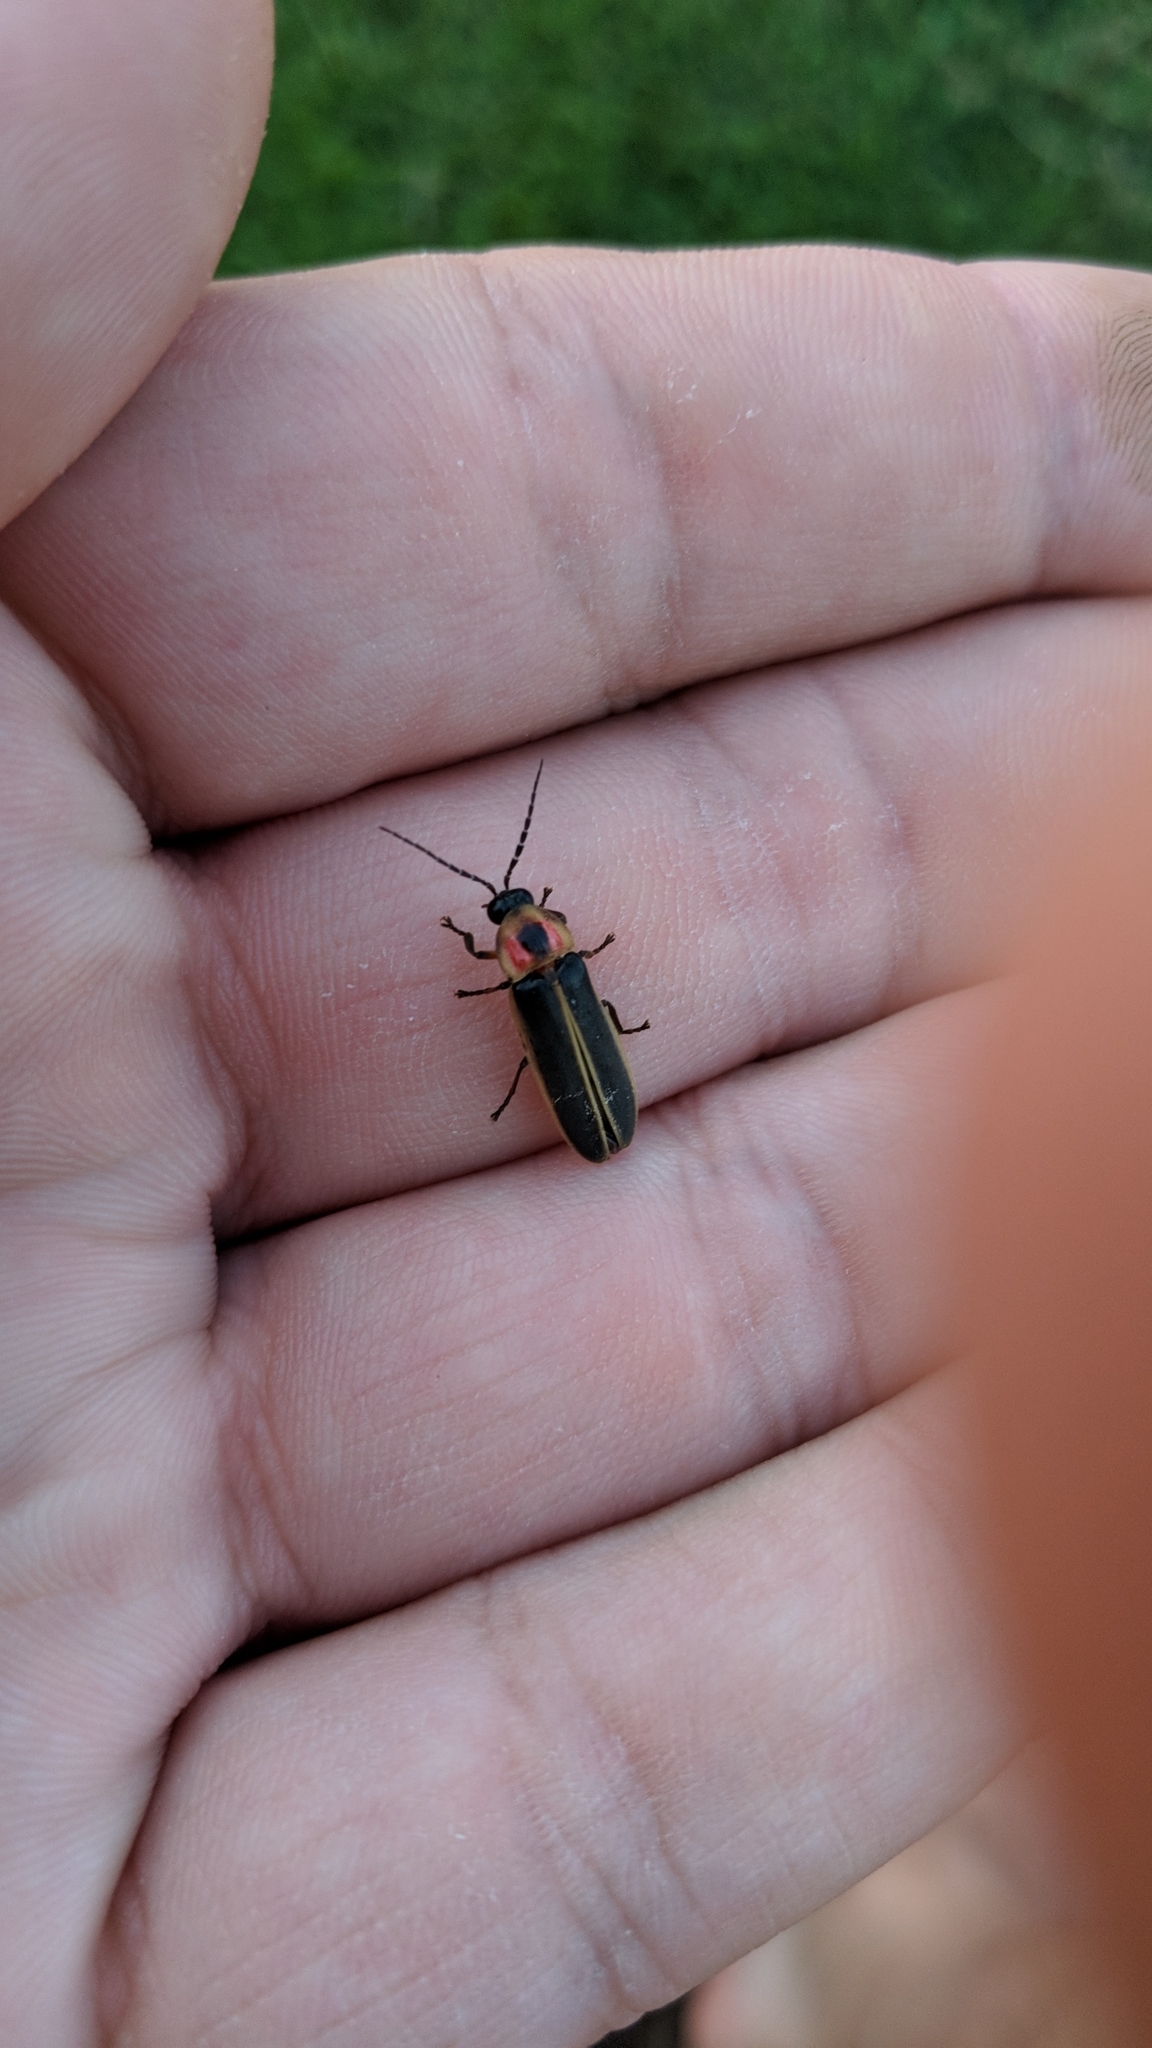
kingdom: Animalia
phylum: Arthropoda
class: Insecta
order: Coleoptera
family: Lampyridae
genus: Photinus
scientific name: Photinus pyralis
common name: Big dipper firefly
